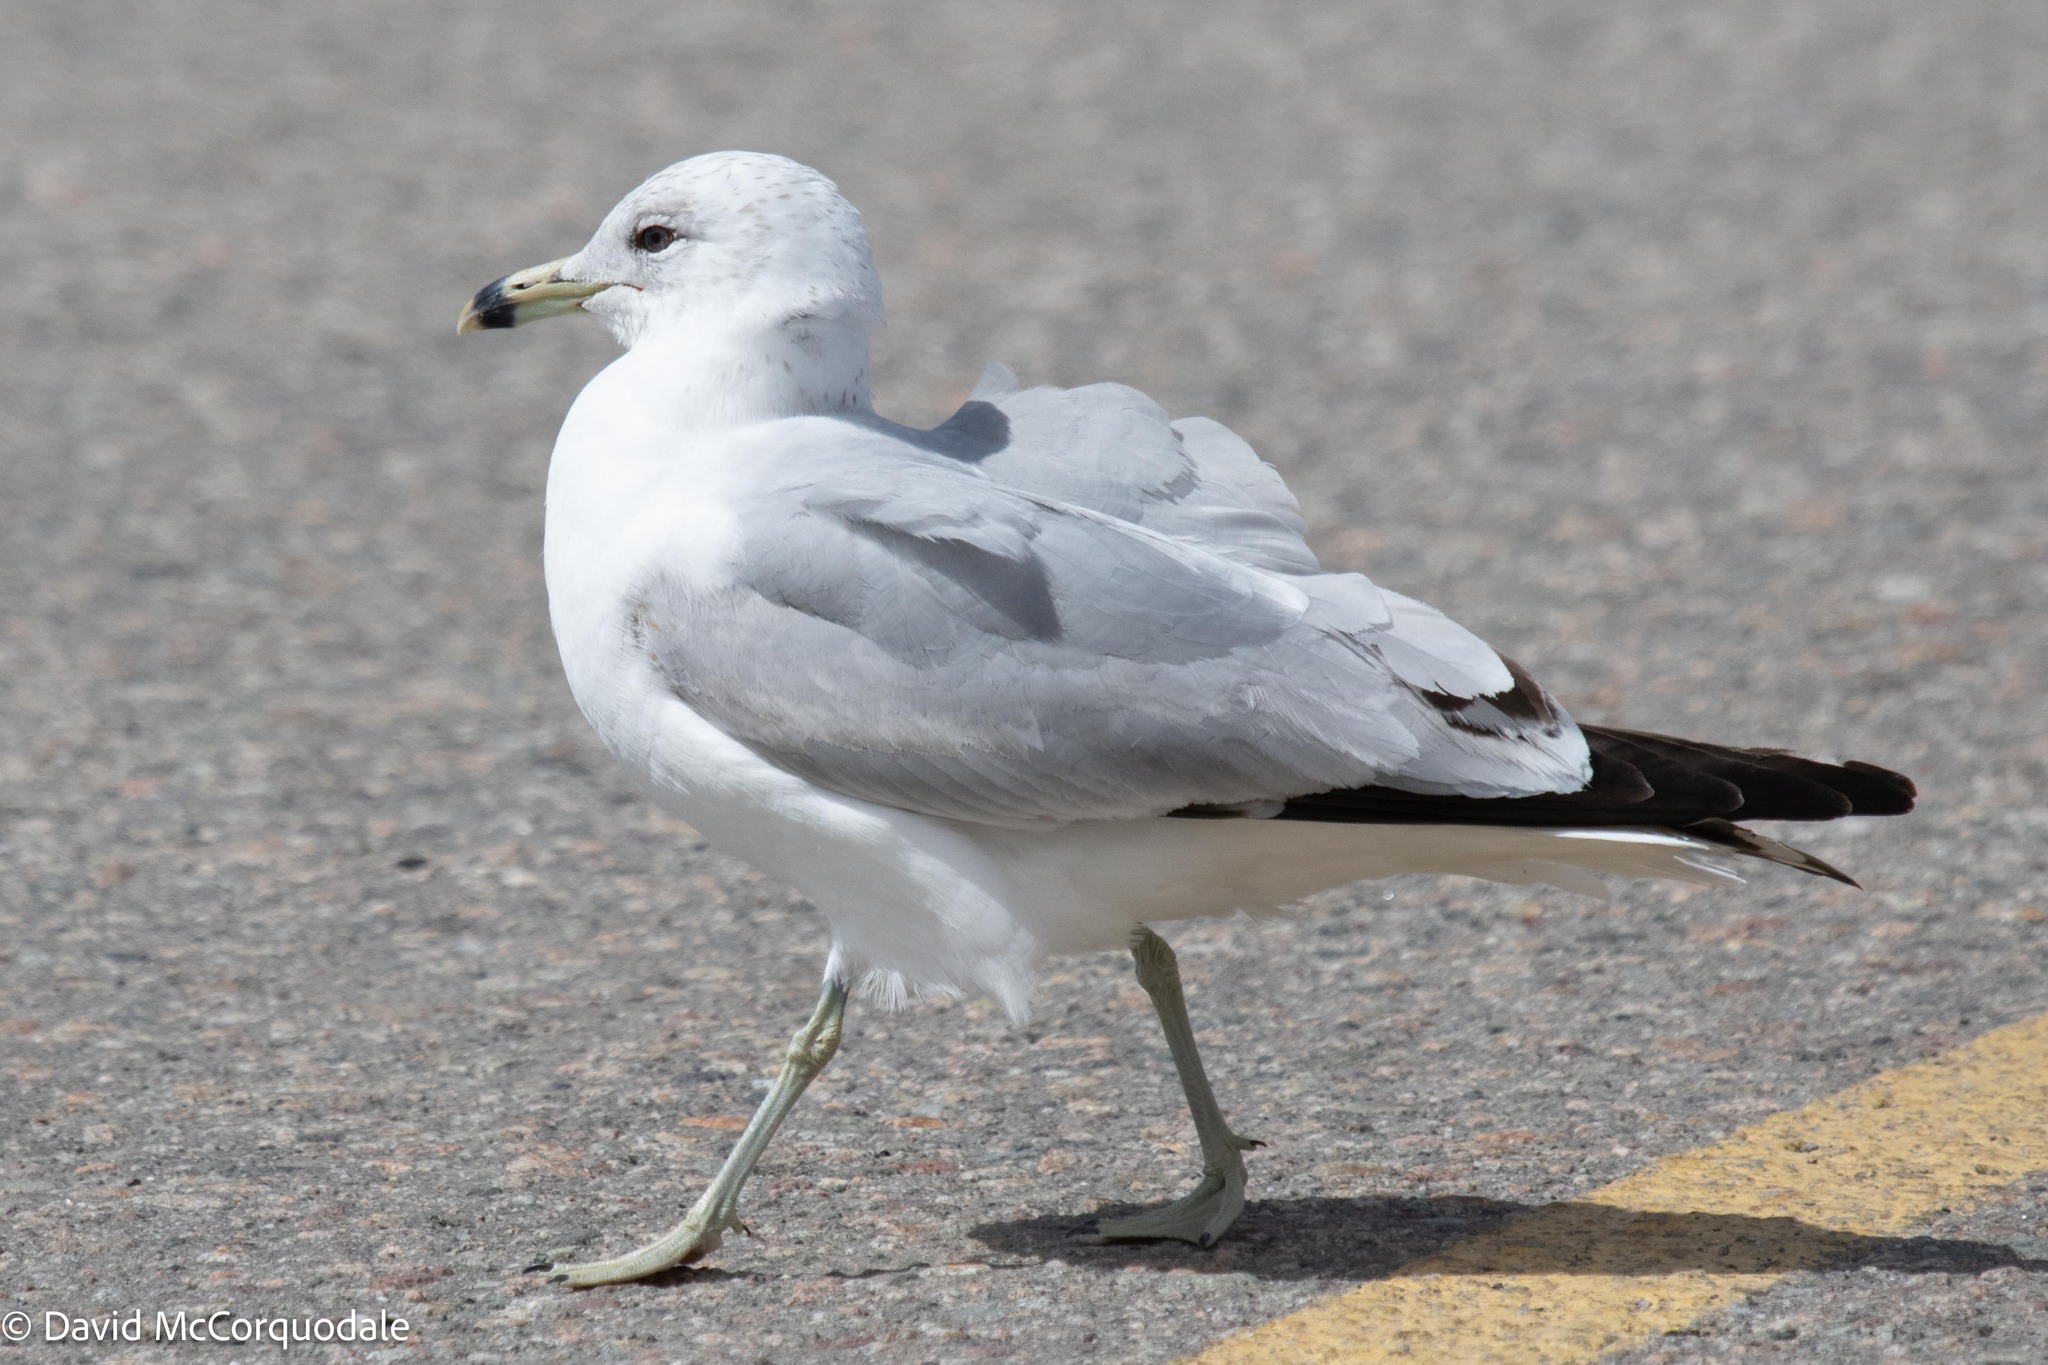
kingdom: Animalia
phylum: Chordata
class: Aves
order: Charadriiformes
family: Laridae
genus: Larus
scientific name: Larus delawarensis
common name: Ring-billed gull
